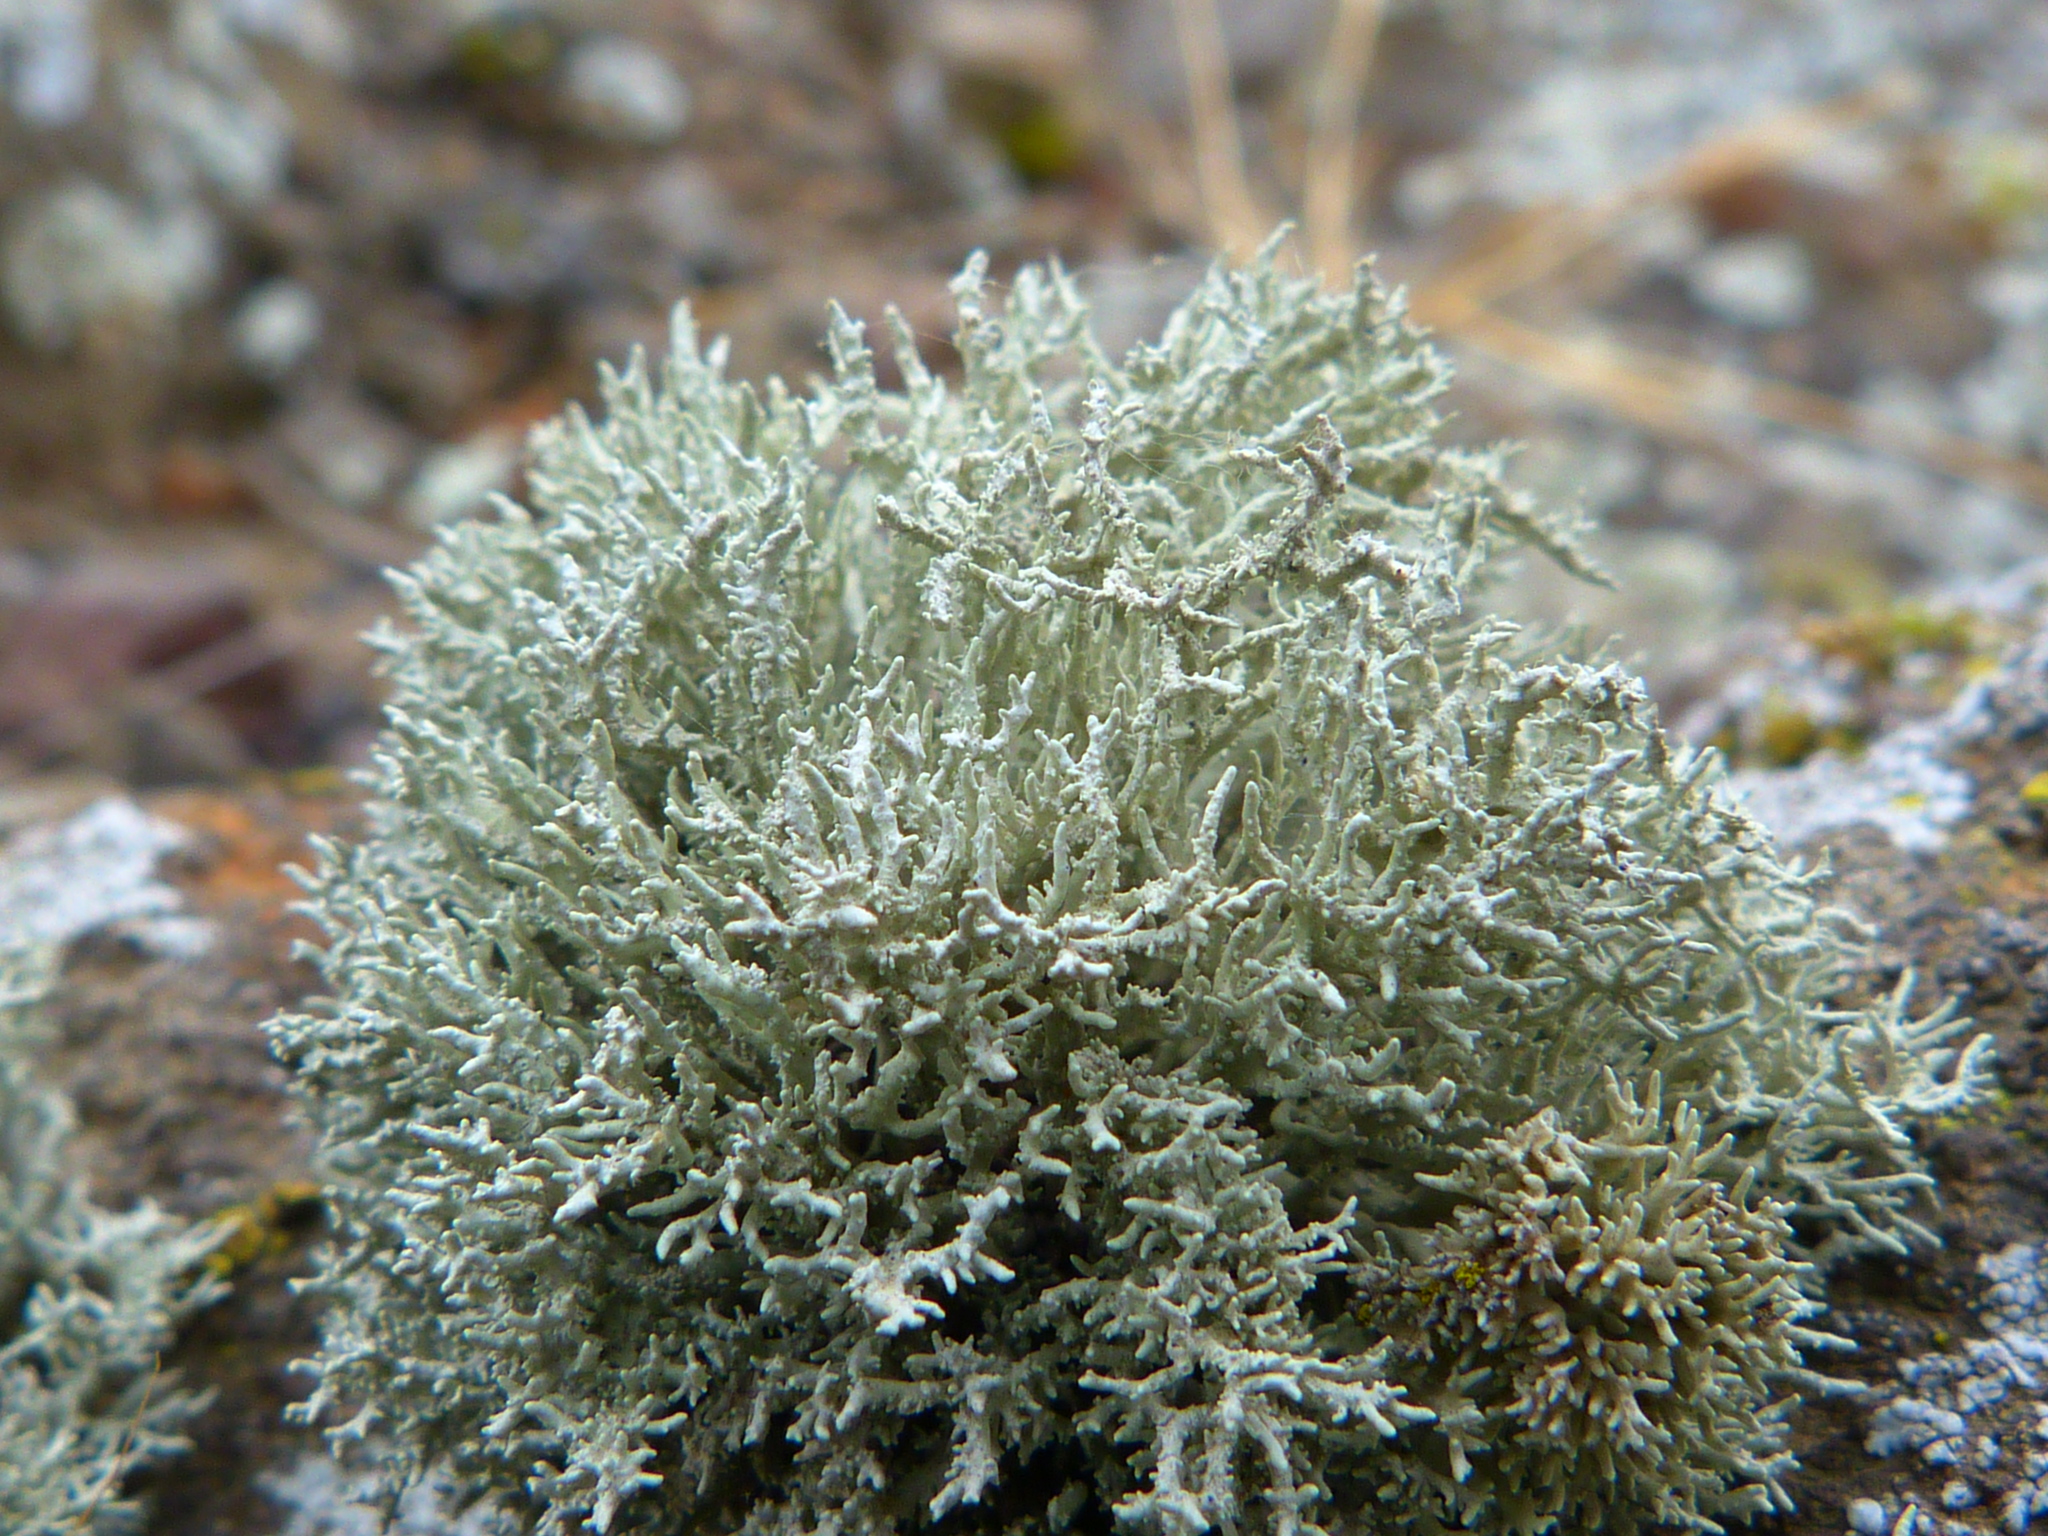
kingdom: Fungi
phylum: Ascomycota
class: Lecanoromycetes
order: Lecanorales
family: Ramalinaceae
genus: Niebla
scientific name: Niebla isidiaescens
